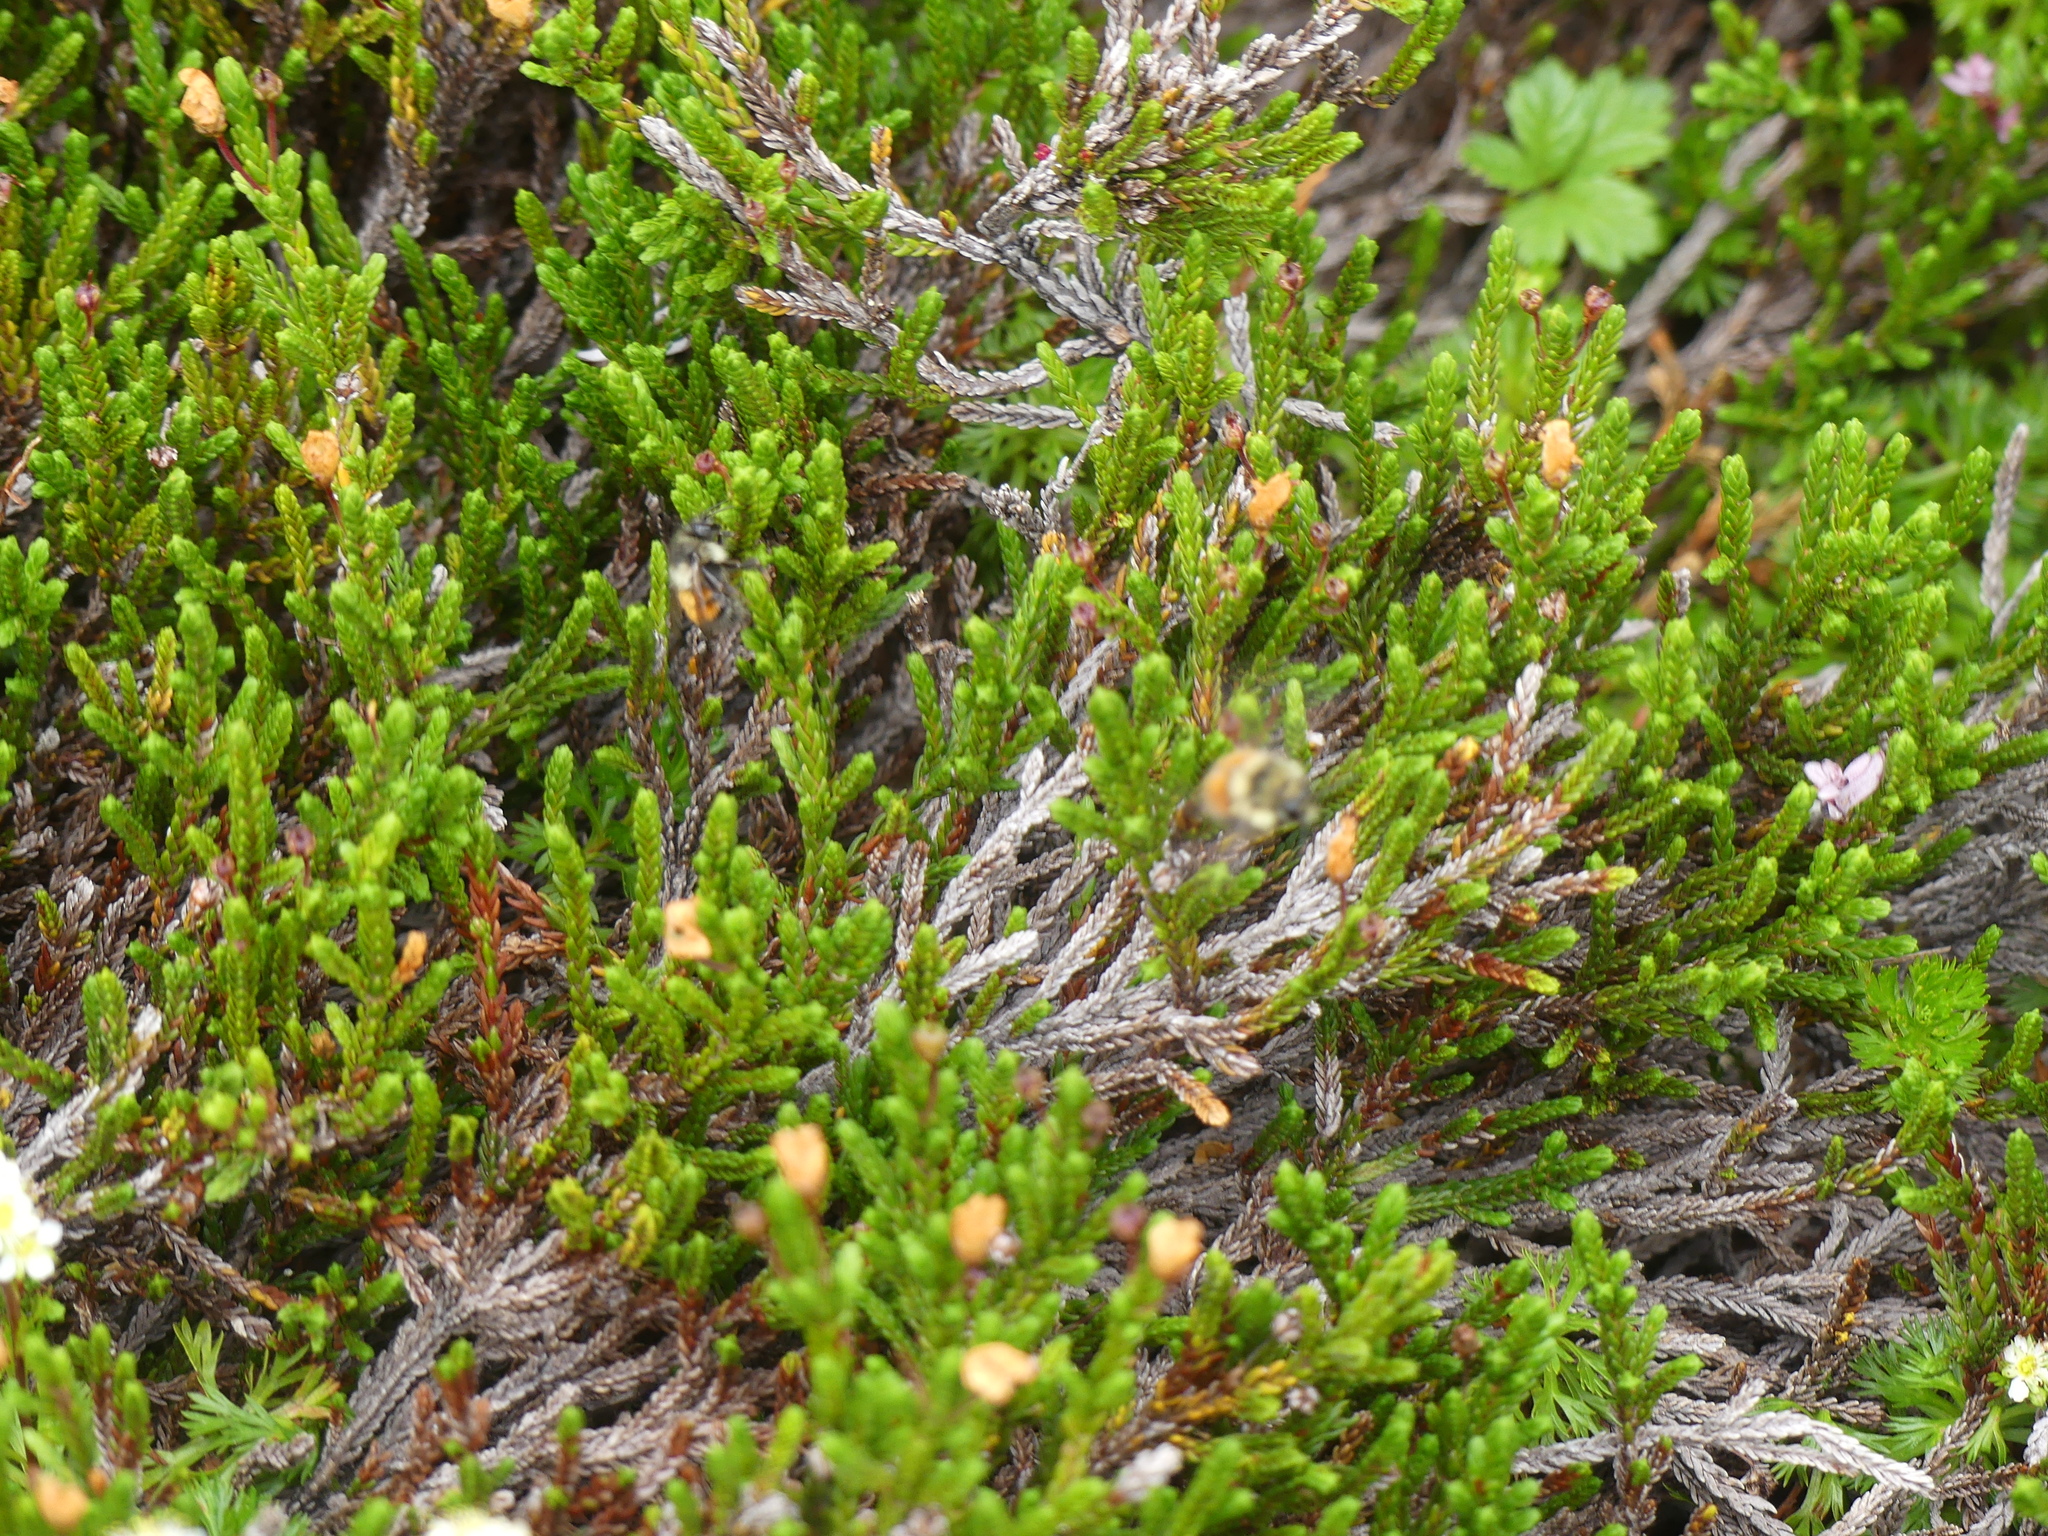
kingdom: Animalia
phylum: Arthropoda
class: Insecta
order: Hymenoptera
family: Apidae
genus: Bombus
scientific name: Bombus melanopygus
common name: Black tail bumble bee
